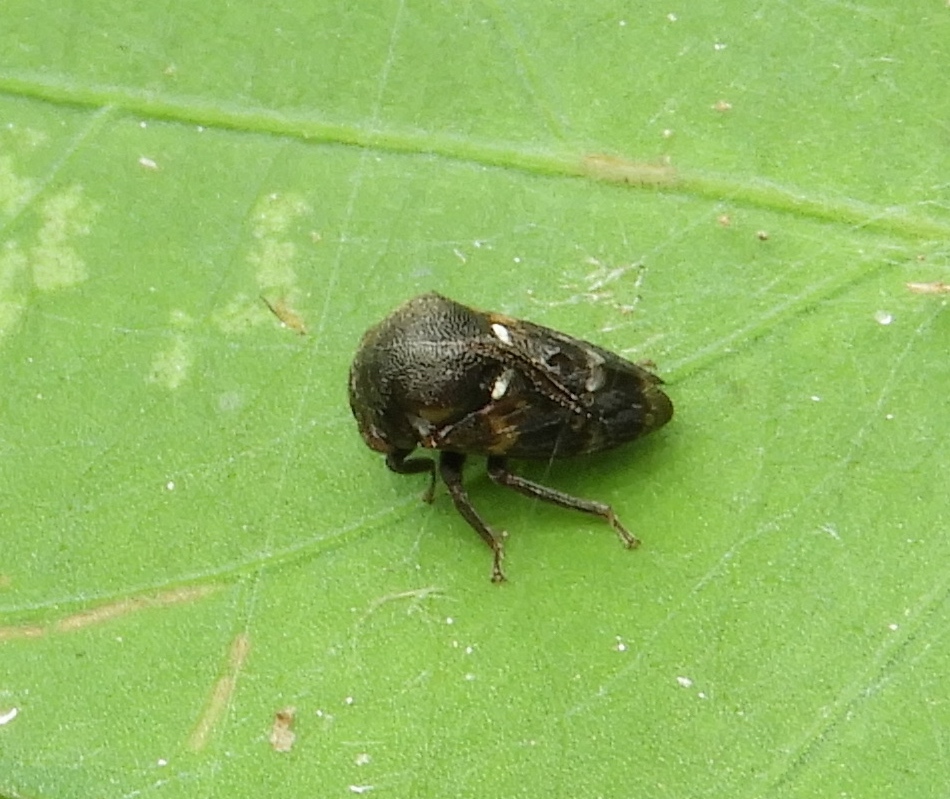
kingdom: Animalia
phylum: Arthropoda
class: Insecta
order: Hemiptera
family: Membracidae
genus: Campylocentrus
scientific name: Campylocentrus
